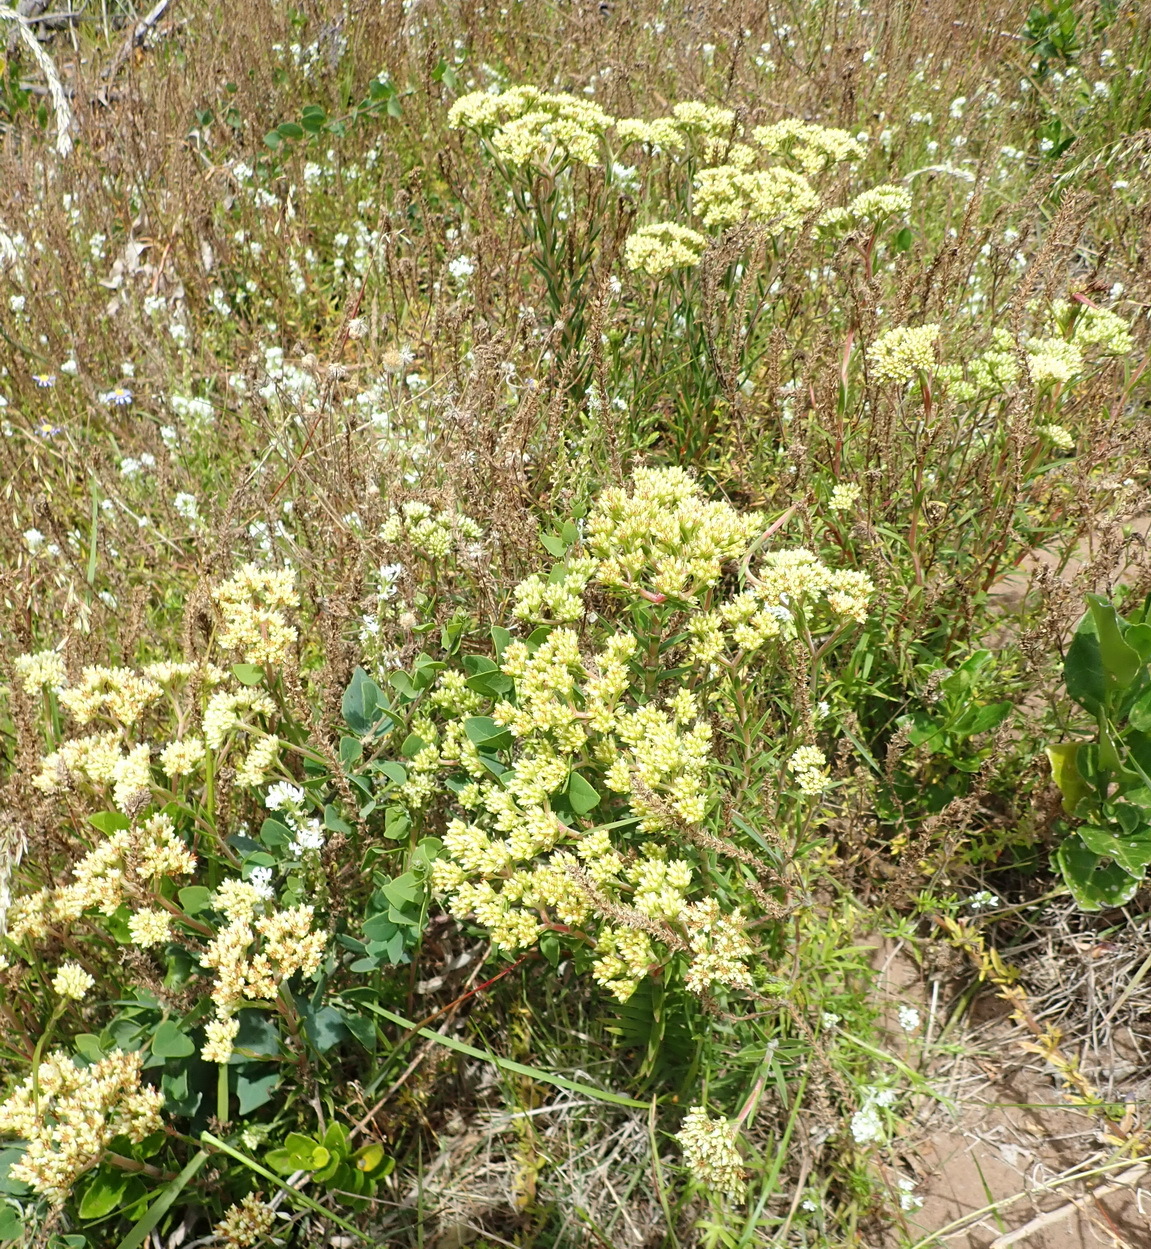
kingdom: Plantae
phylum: Tracheophyta
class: Magnoliopsida
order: Saxifragales
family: Crassulaceae
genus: Crassula
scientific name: Crassula subulata
